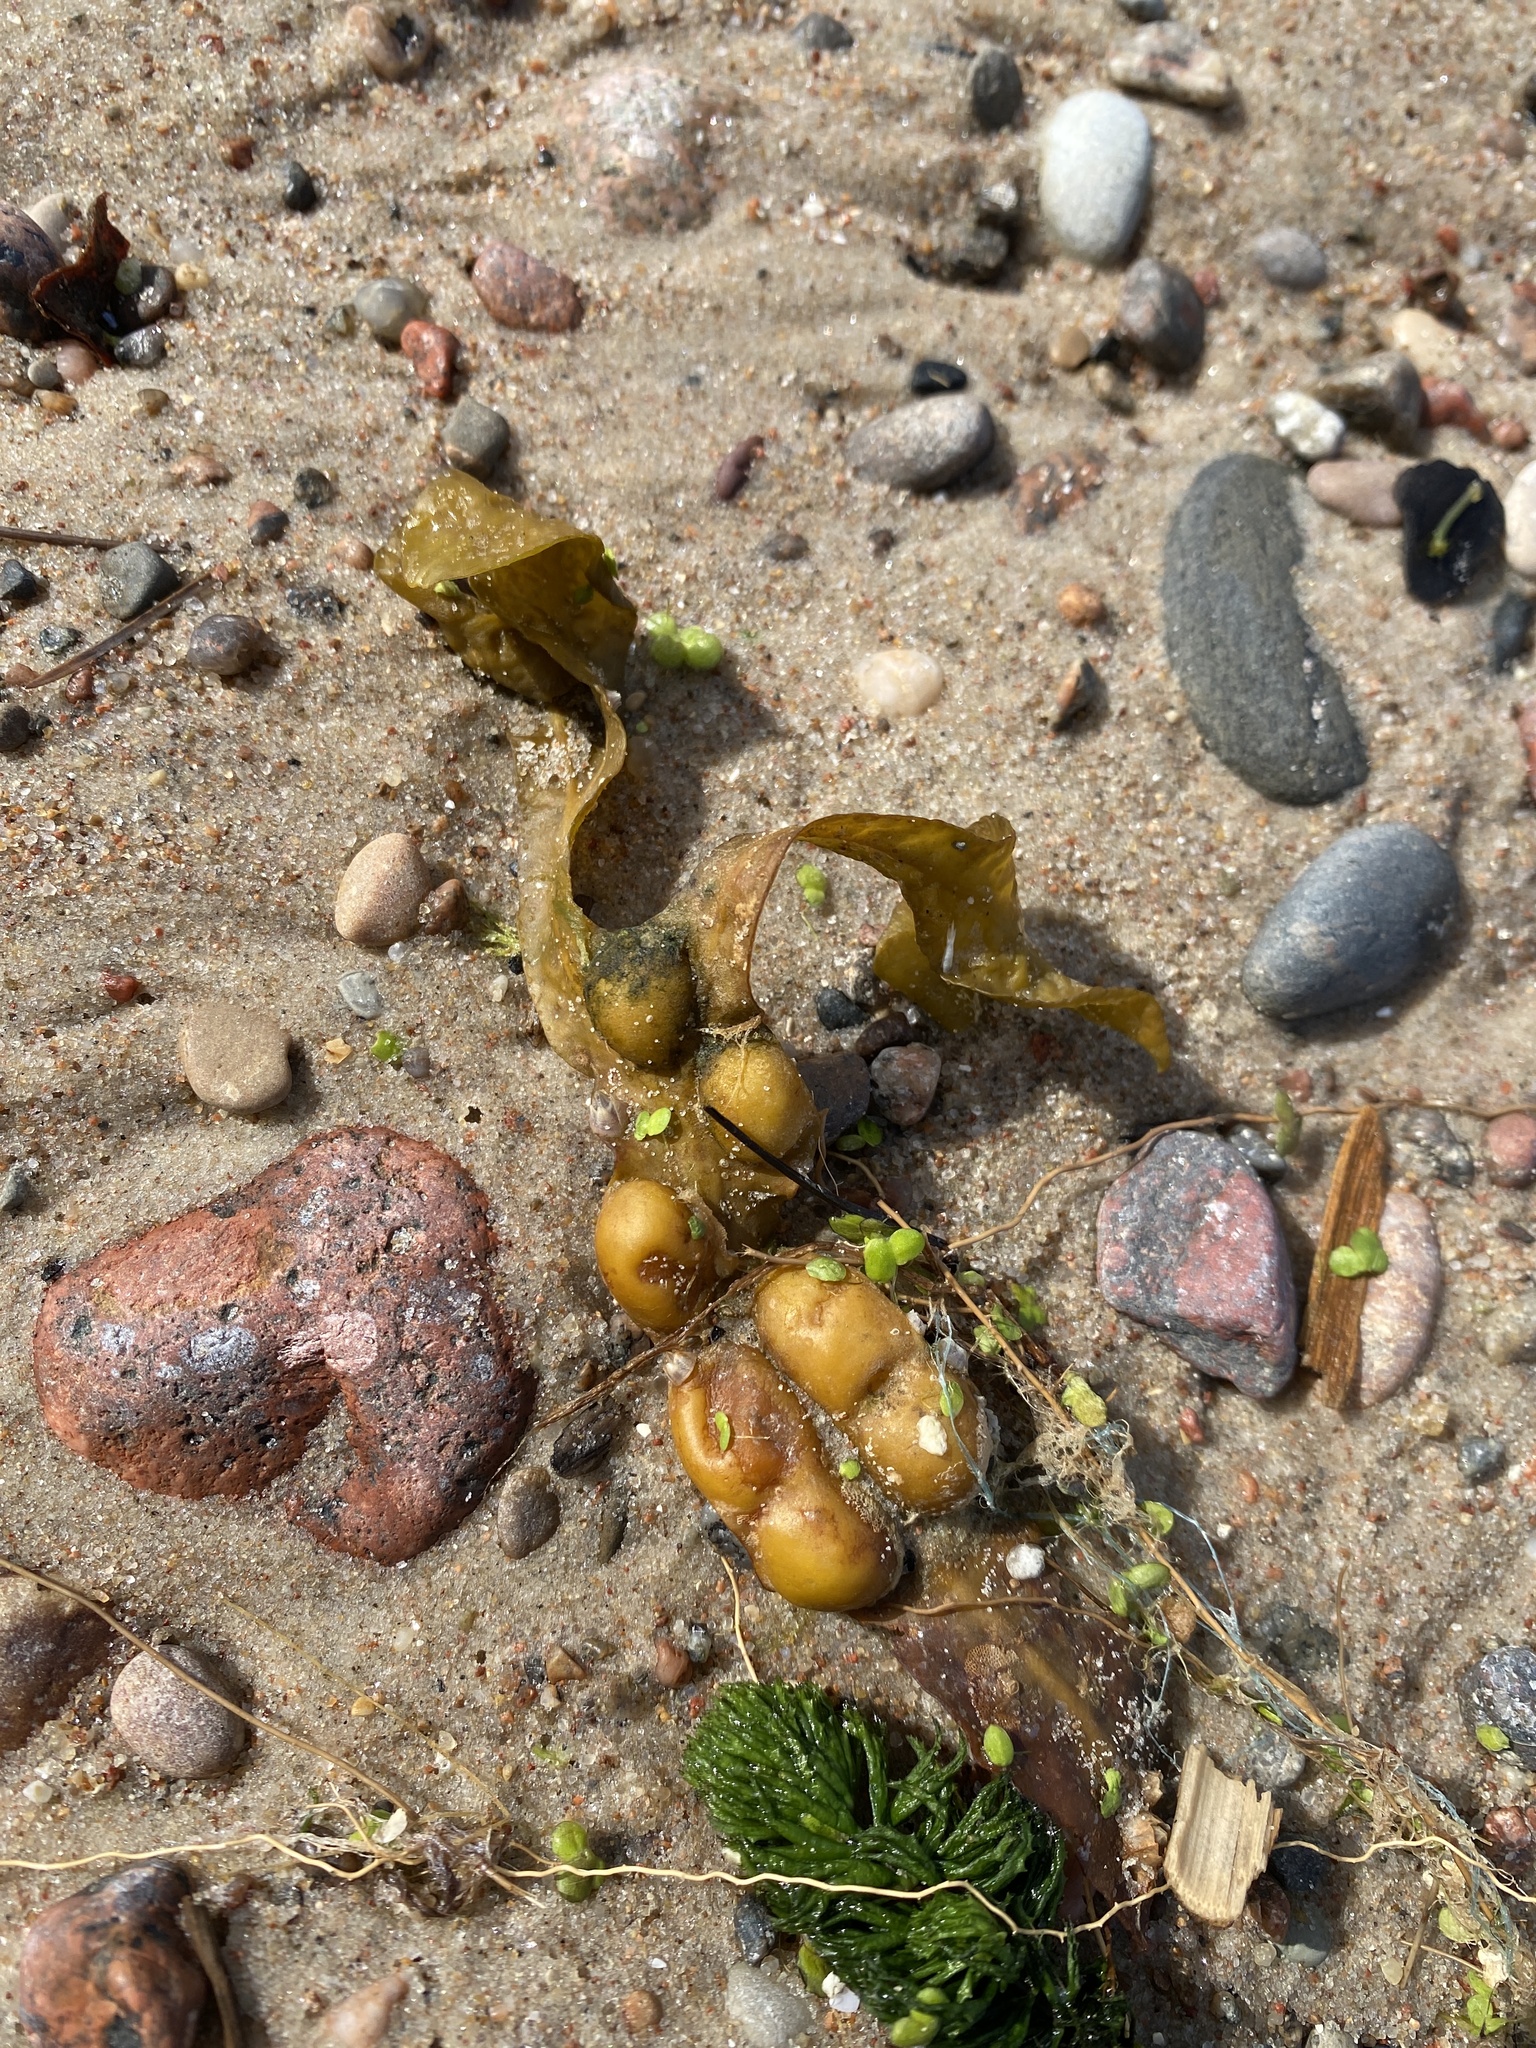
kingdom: Chromista
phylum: Ochrophyta
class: Phaeophyceae
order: Fucales
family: Fucaceae
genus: Fucus
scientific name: Fucus vesiculosus
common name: Bladder wrack
